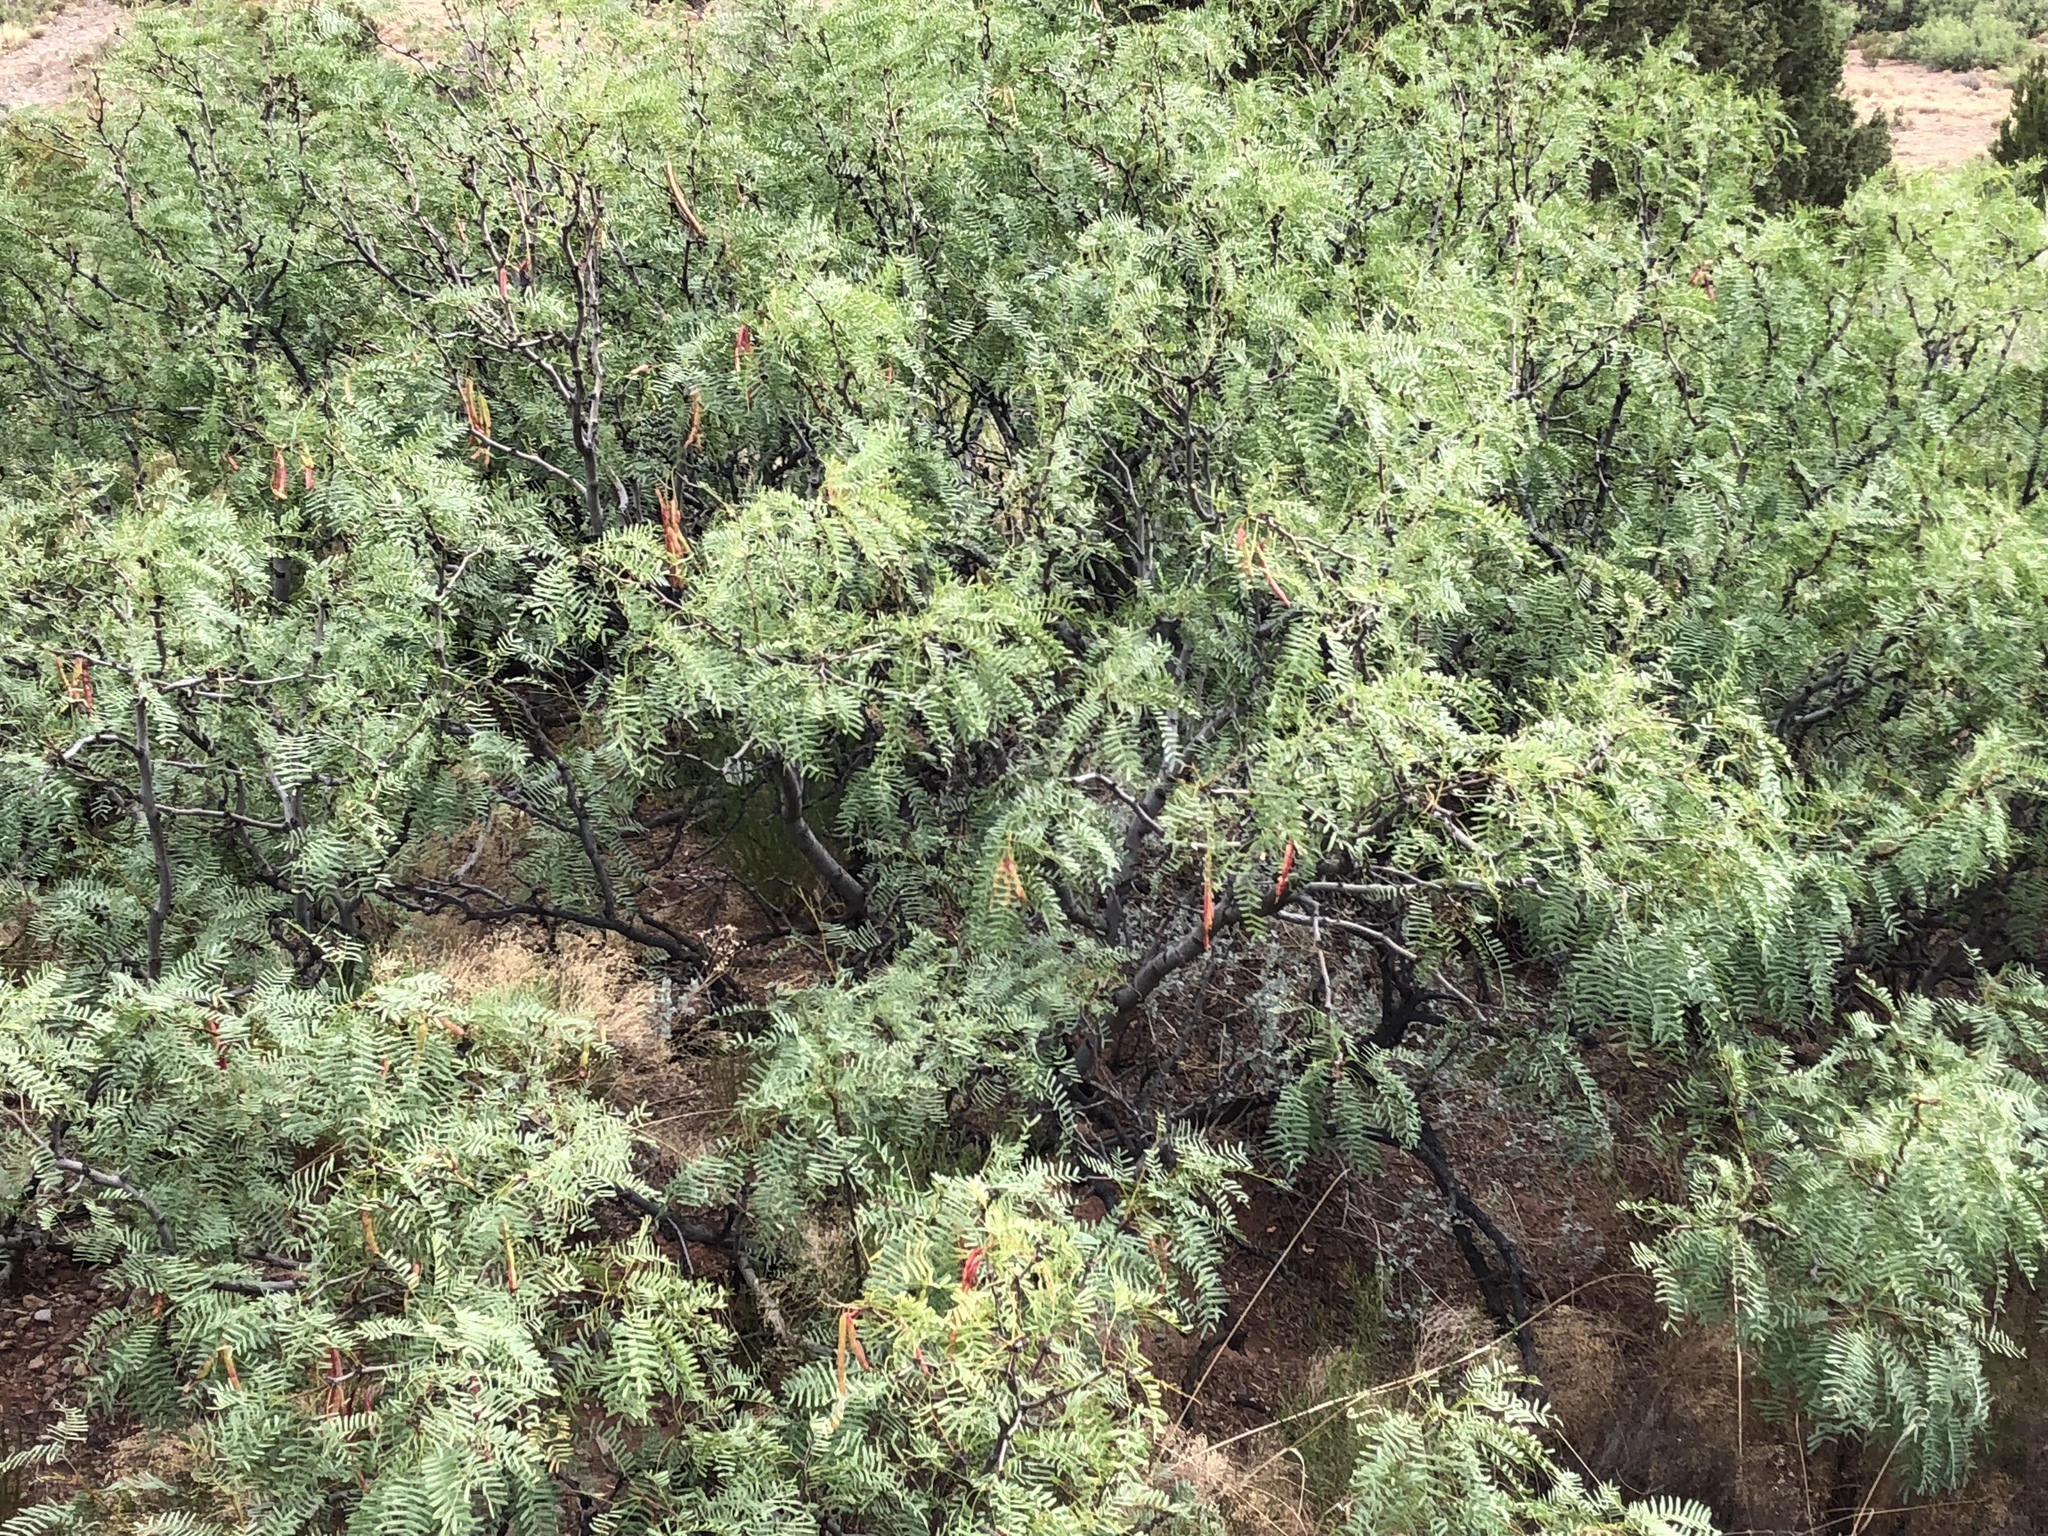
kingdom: Plantae
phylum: Tracheophyta
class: Magnoliopsida
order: Fabales
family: Fabaceae
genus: Prosopis
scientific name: Prosopis glandulosa
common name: Honey mesquite
